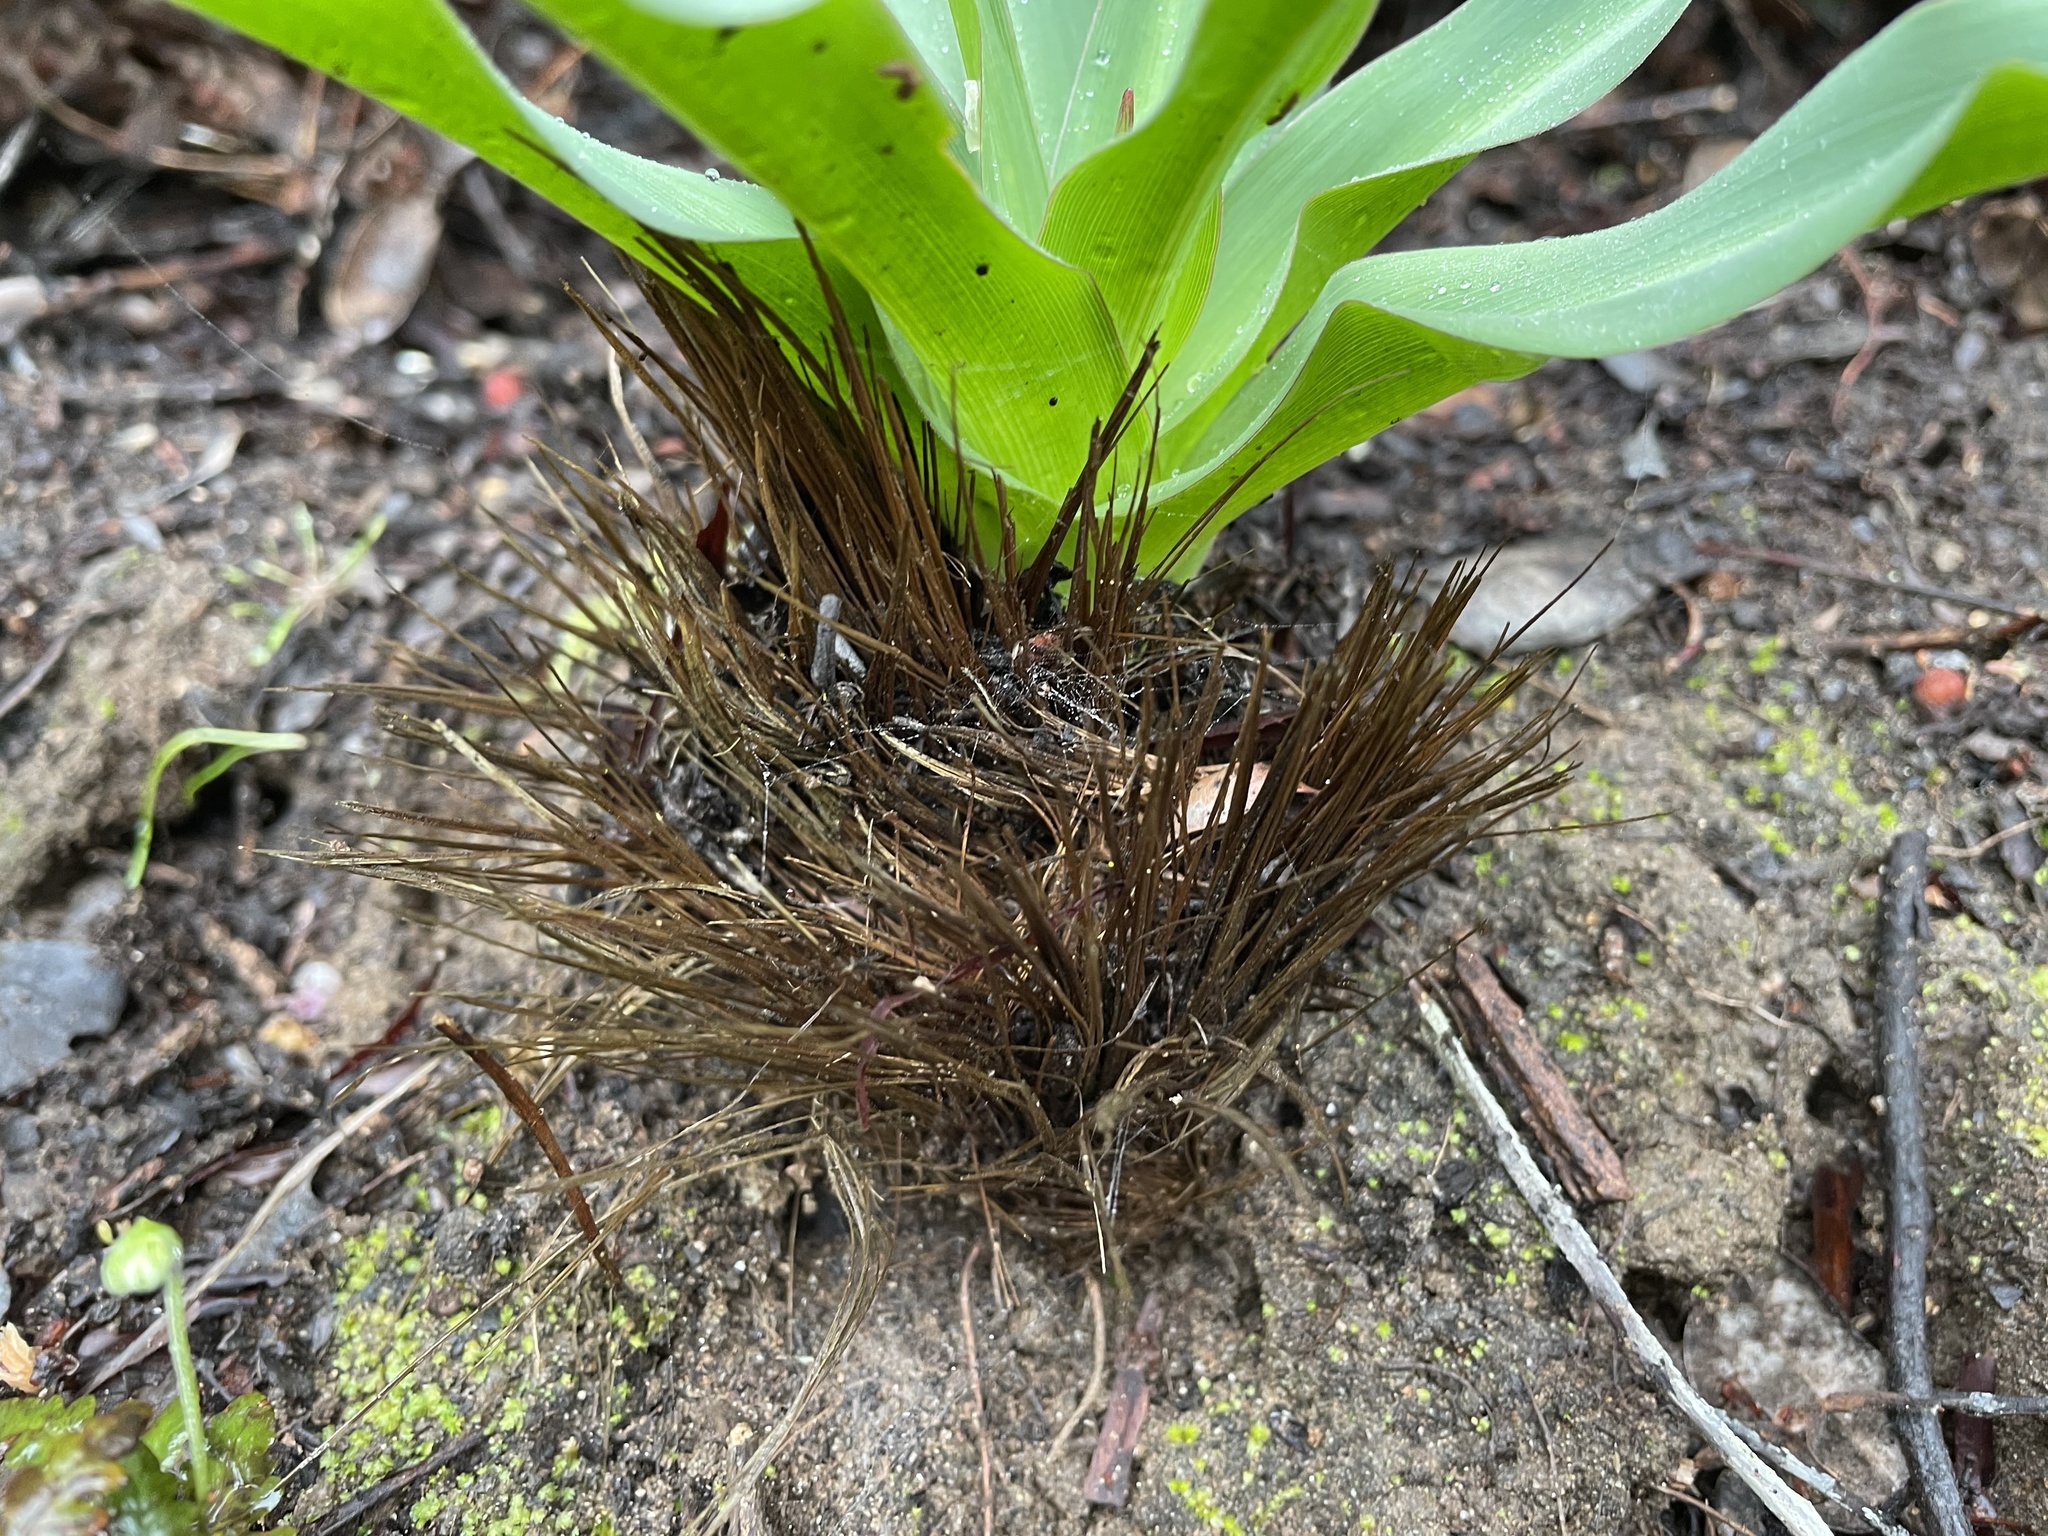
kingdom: Plantae
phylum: Tracheophyta
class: Liliopsida
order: Asparagales
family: Asparagaceae
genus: Chlorogalum
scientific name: Chlorogalum pomeridianum
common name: Amole
